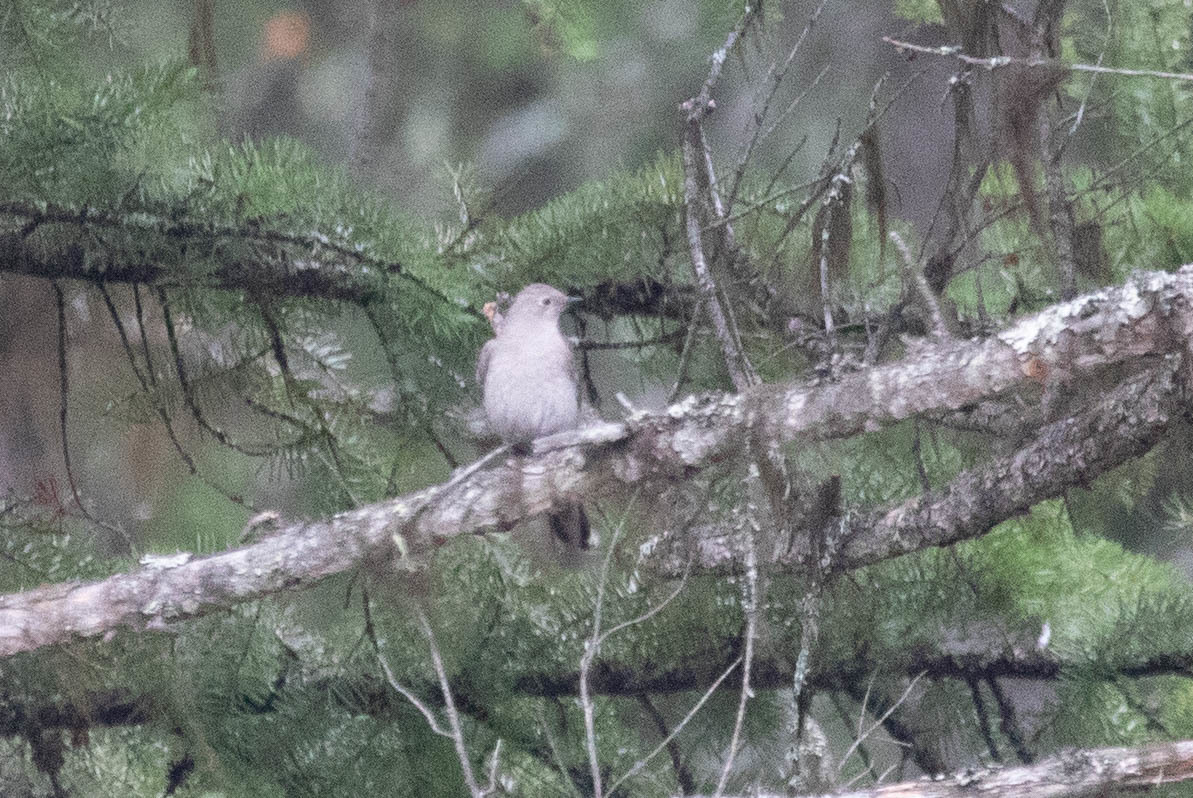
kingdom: Animalia
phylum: Chordata
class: Aves
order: Passeriformes
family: Turdidae
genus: Myadestes
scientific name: Myadestes townsendi
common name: Townsend's solitaire
